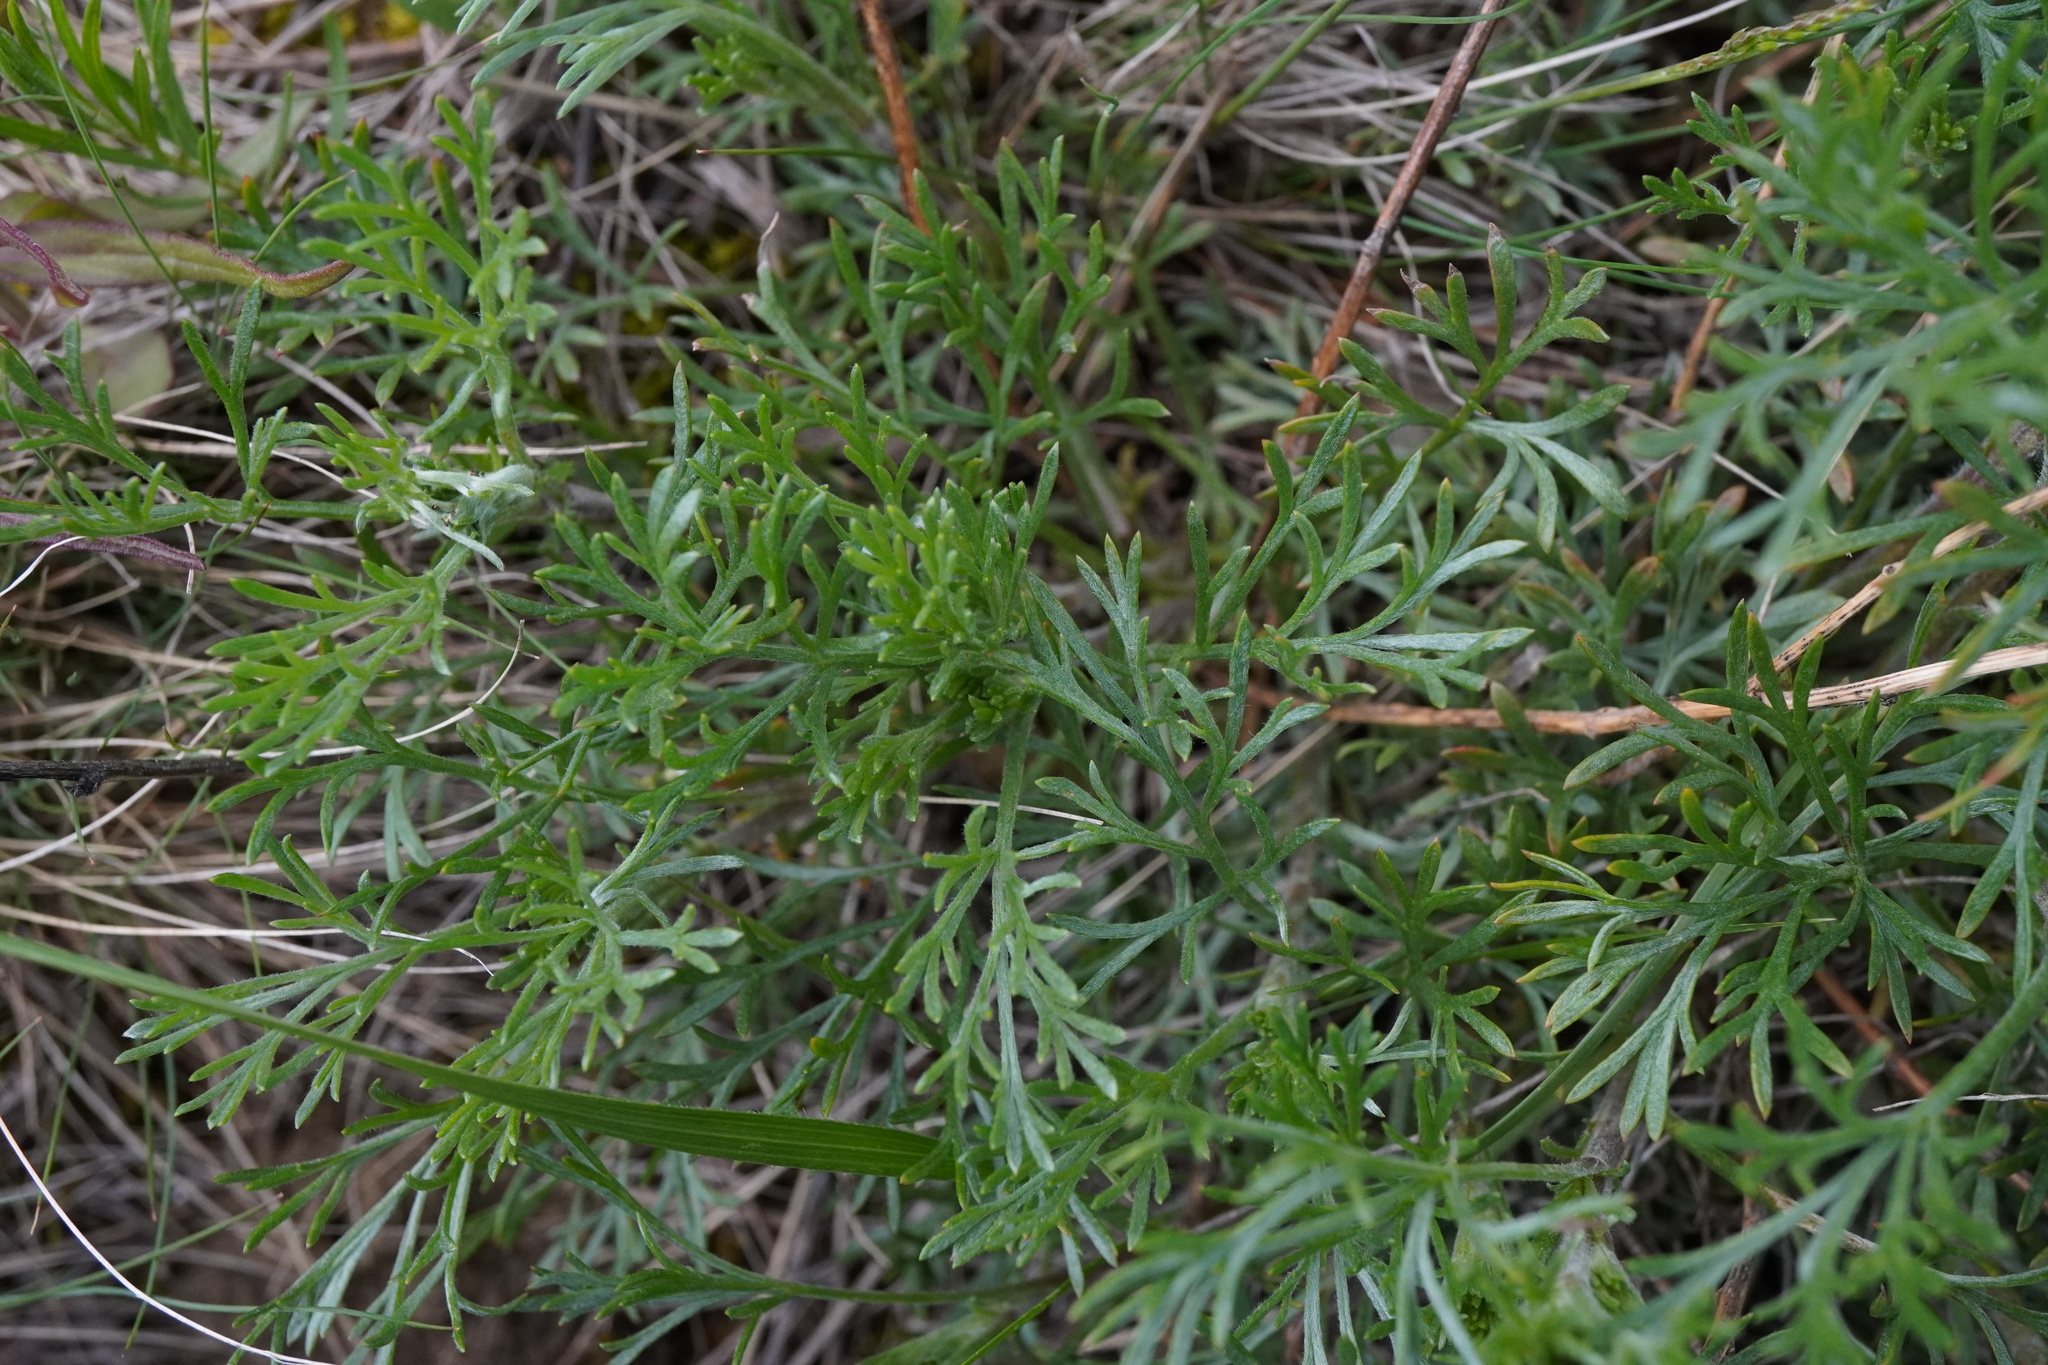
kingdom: Plantae
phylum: Tracheophyta
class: Magnoliopsida
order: Asterales
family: Asteraceae
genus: Artemisia
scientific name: Artemisia campestris
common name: Field wormwood
